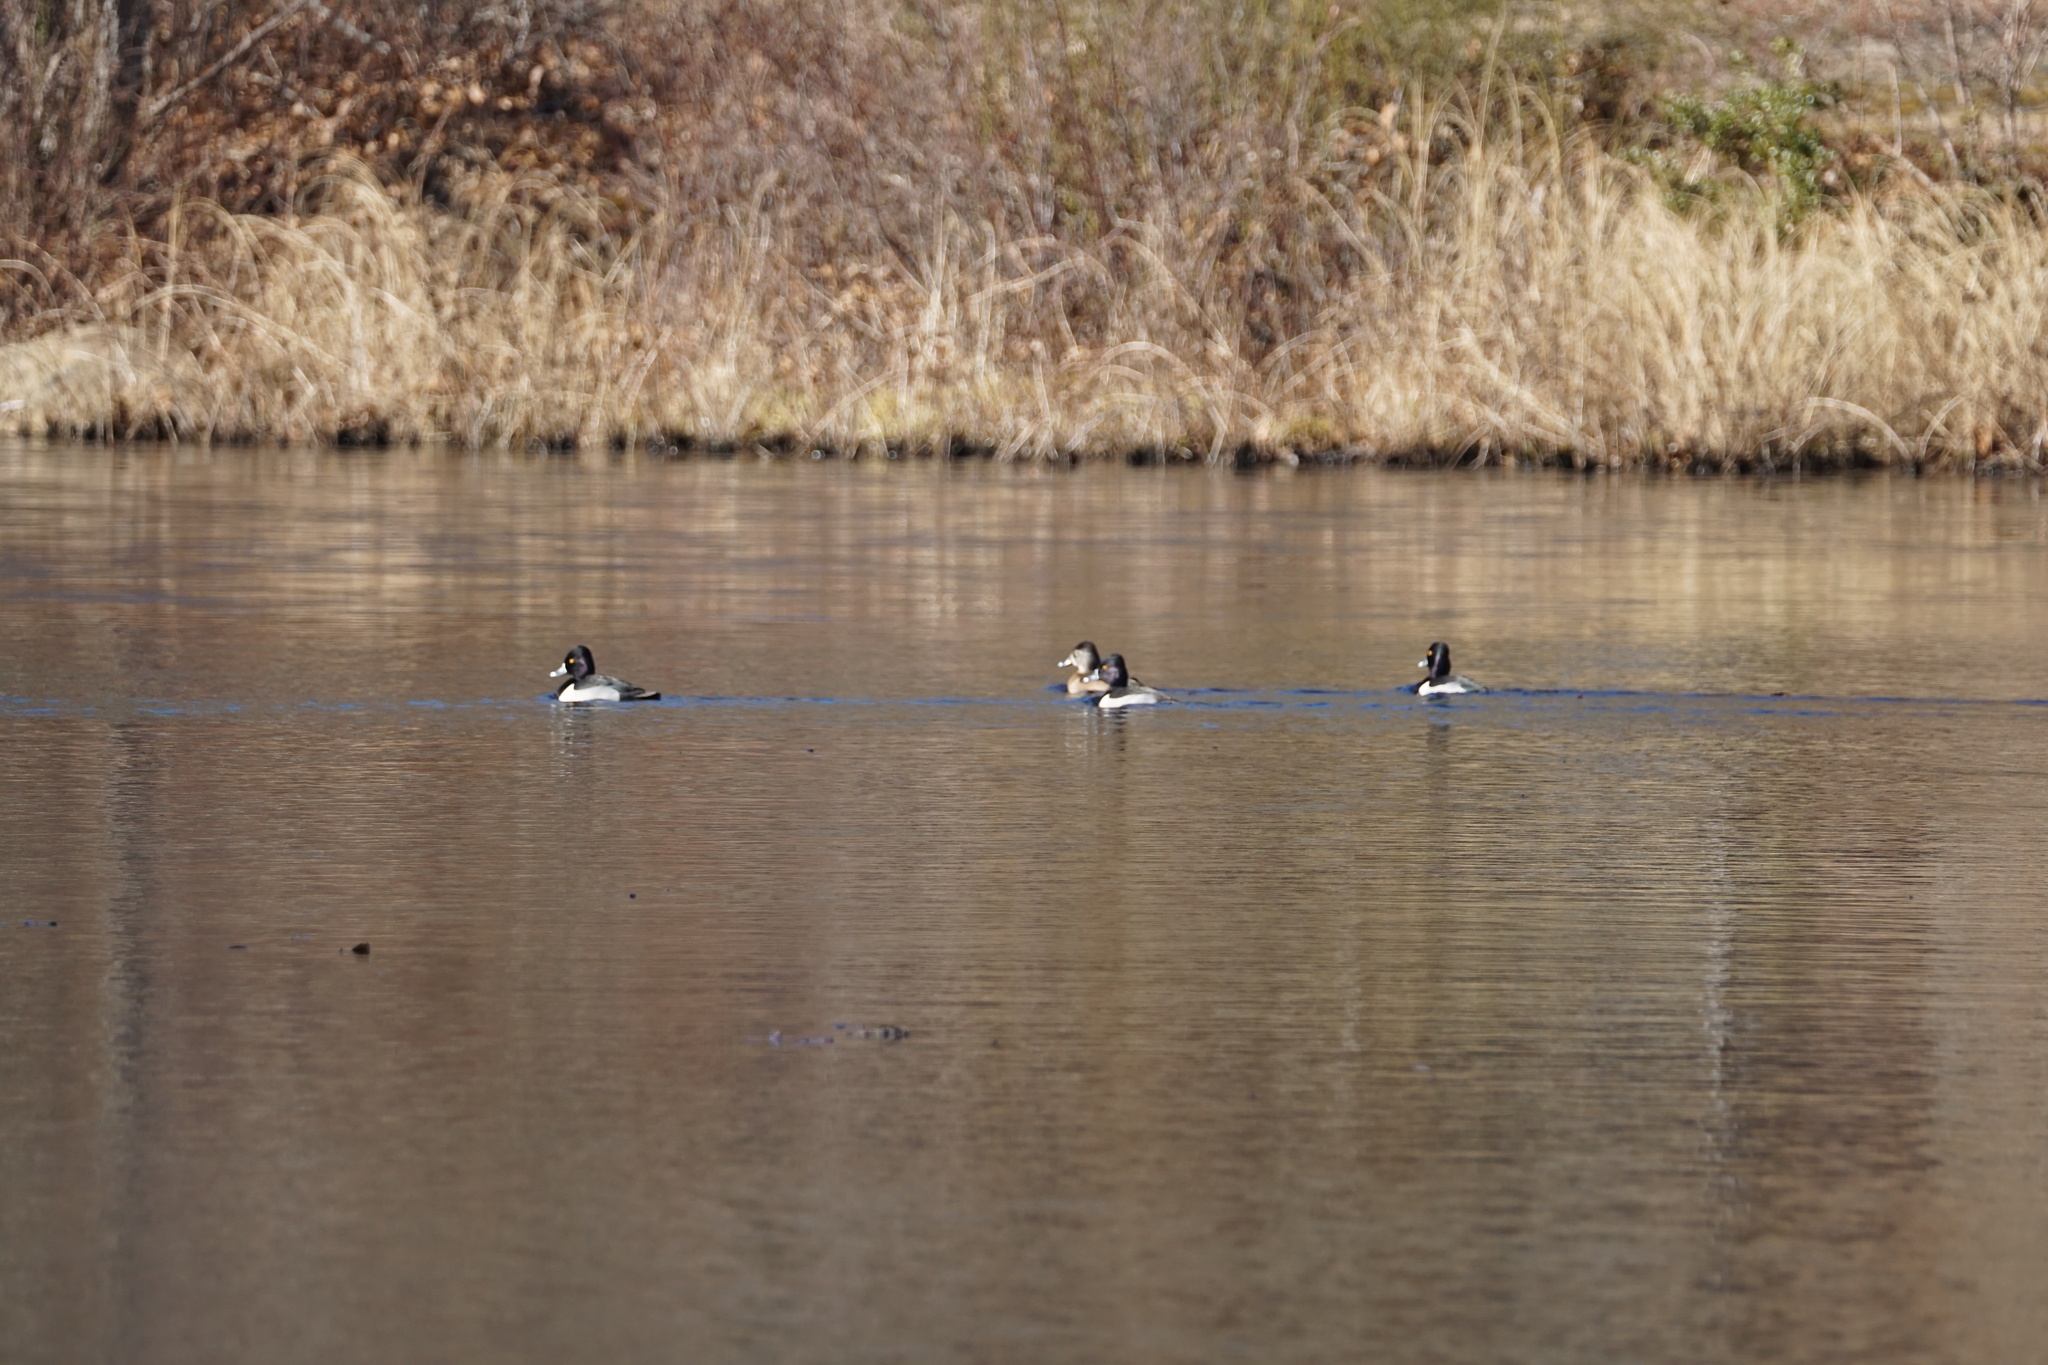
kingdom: Animalia
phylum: Chordata
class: Aves
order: Anseriformes
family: Anatidae
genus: Aythya
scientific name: Aythya collaris
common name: Ring-necked duck
